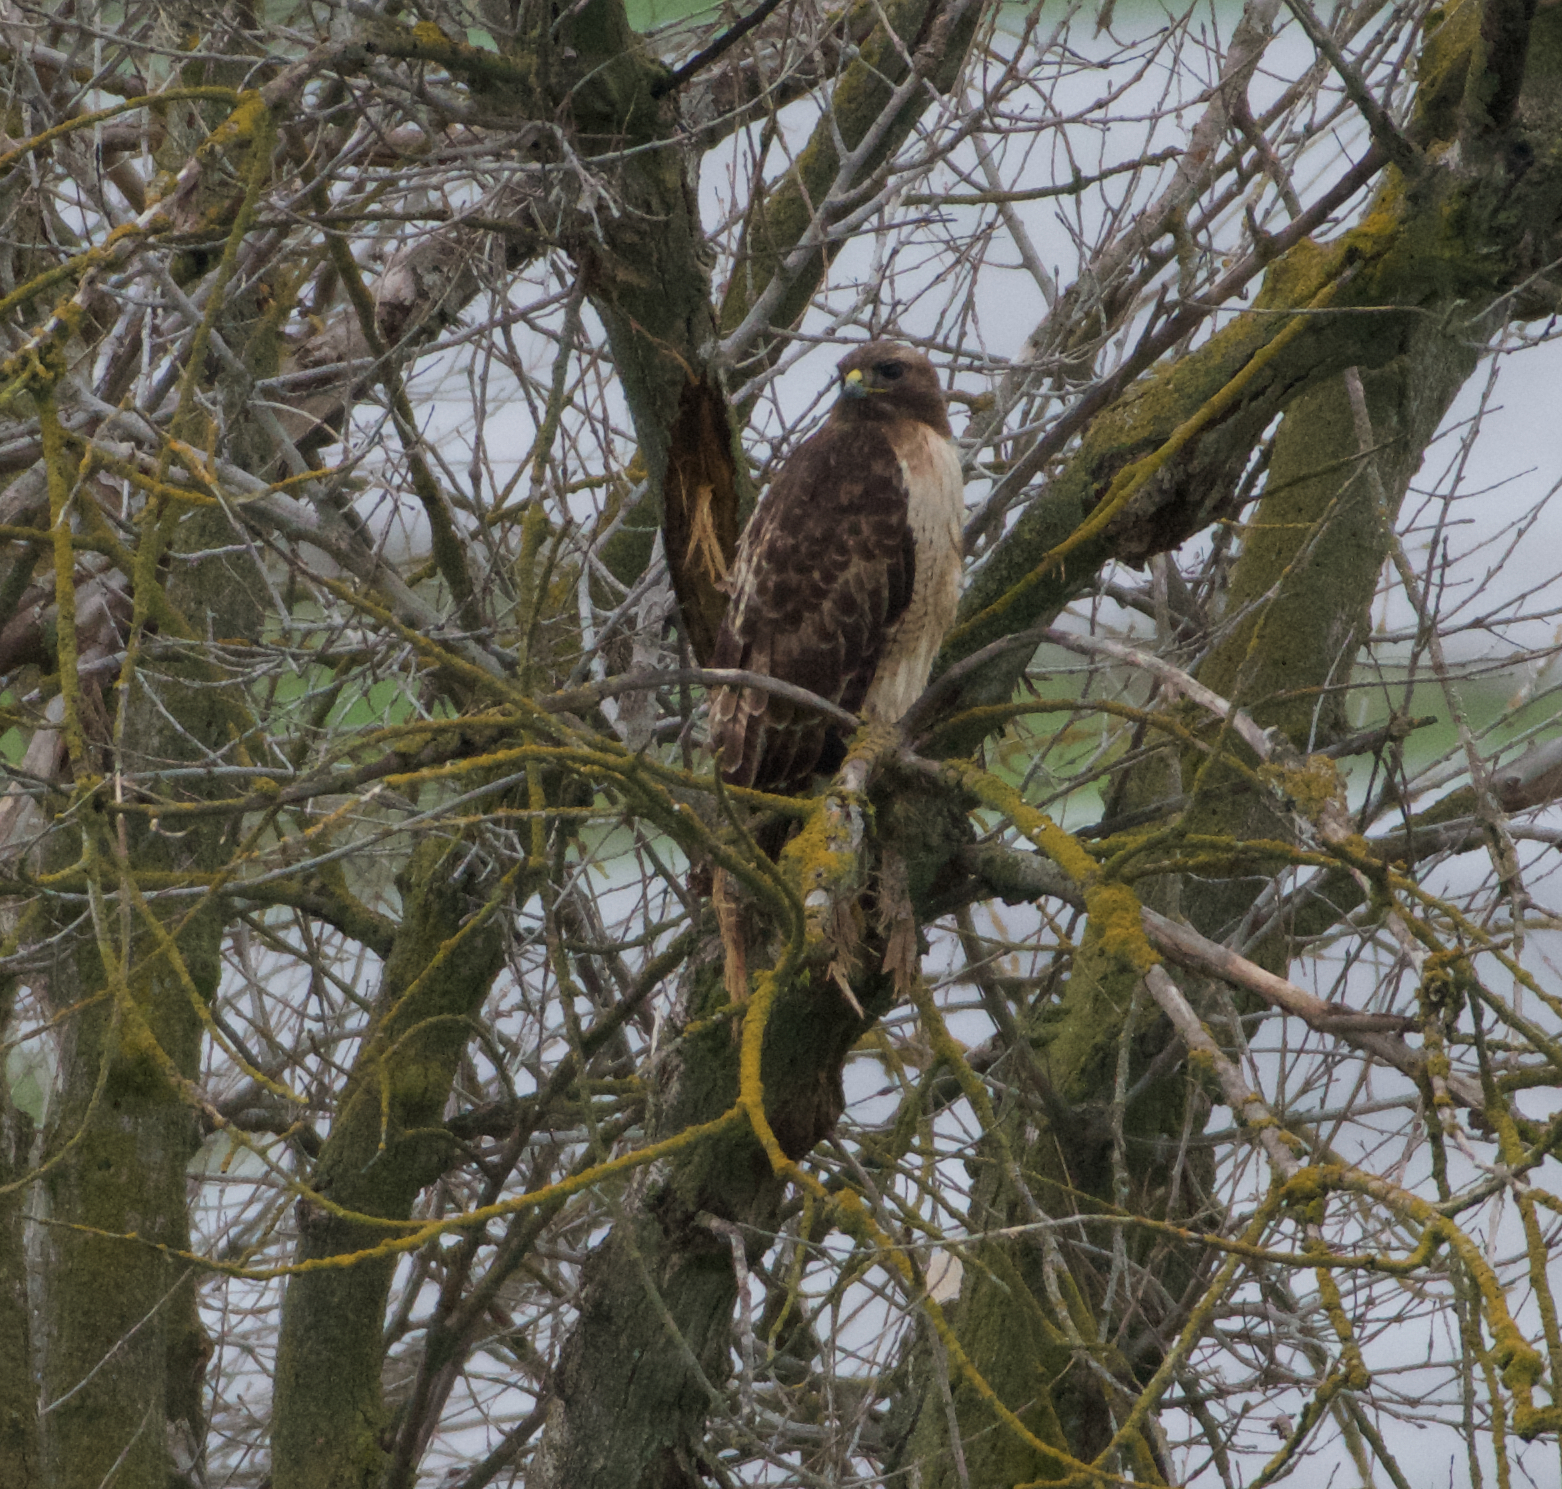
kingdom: Animalia
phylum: Chordata
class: Aves
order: Accipitriformes
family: Accipitridae
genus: Buteo
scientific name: Buteo jamaicensis
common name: Red-tailed hawk
